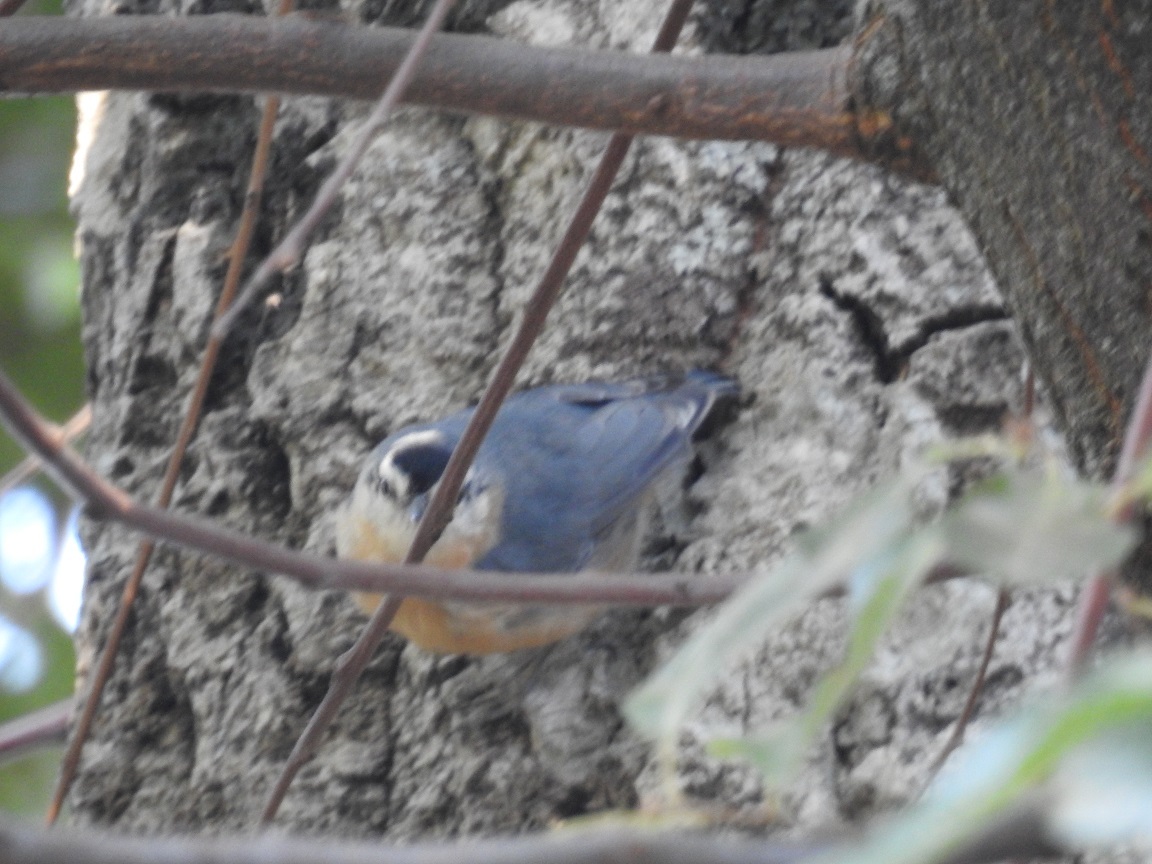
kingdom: Animalia
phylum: Chordata
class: Aves
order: Passeriformes
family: Sittidae
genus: Sitta
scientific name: Sitta ledanti
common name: Algerian nuthatch
